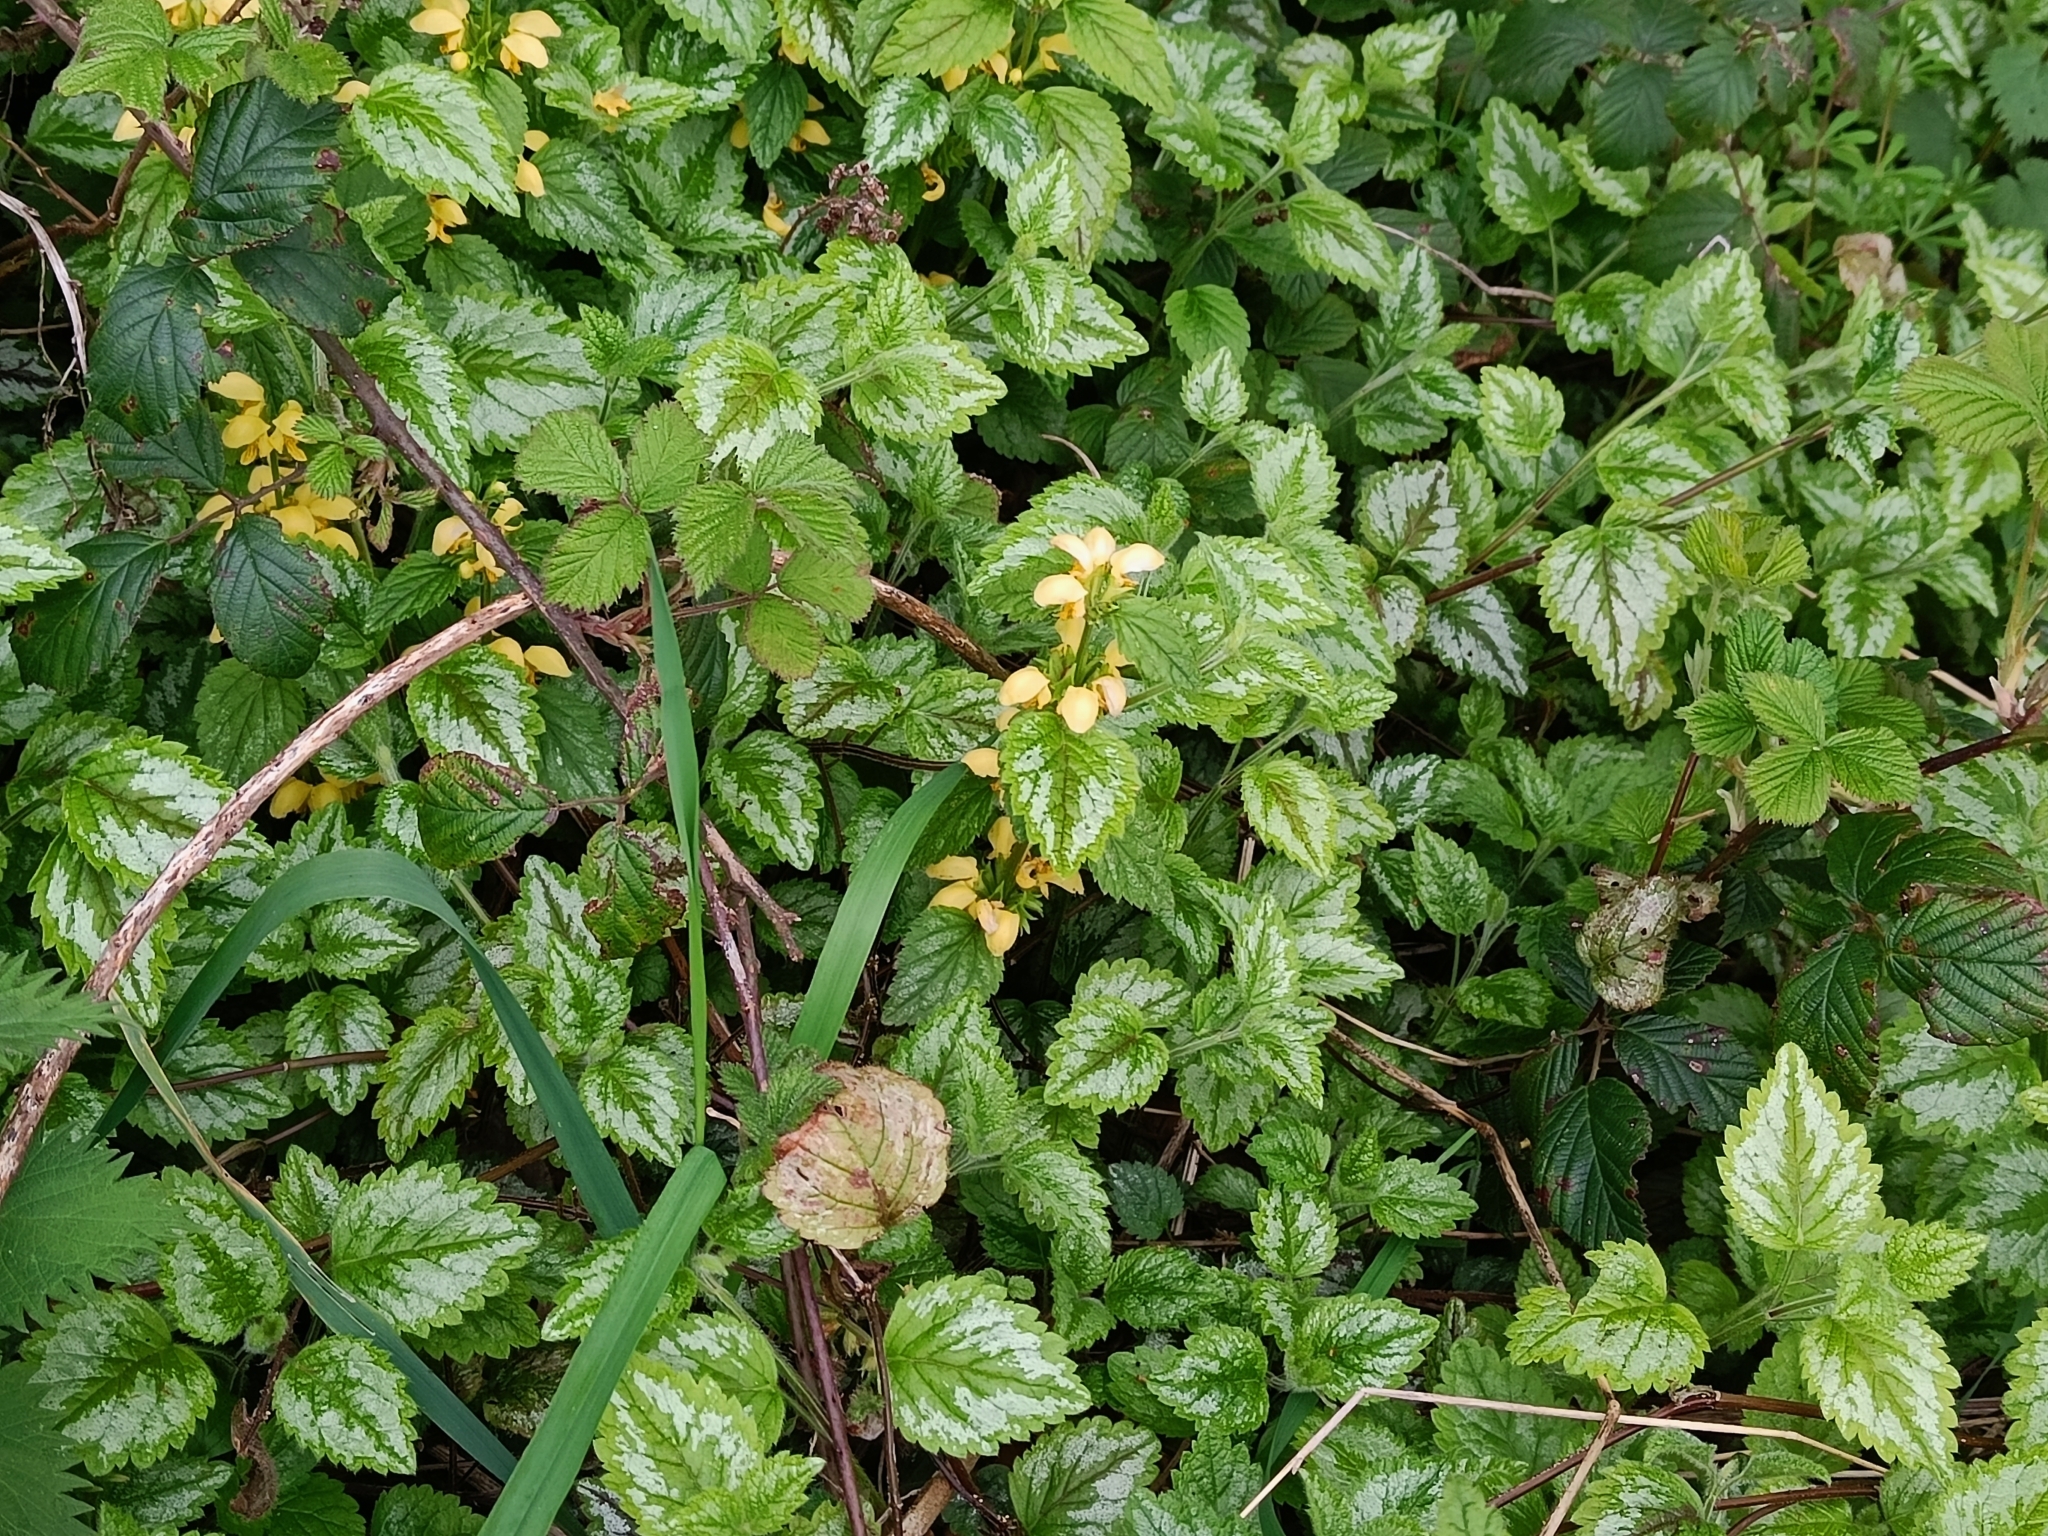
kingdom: Plantae
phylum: Tracheophyta
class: Magnoliopsida
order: Lamiales
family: Lamiaceae
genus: Lamium
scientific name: Lamium galeobdolon
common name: Yellow archangel
